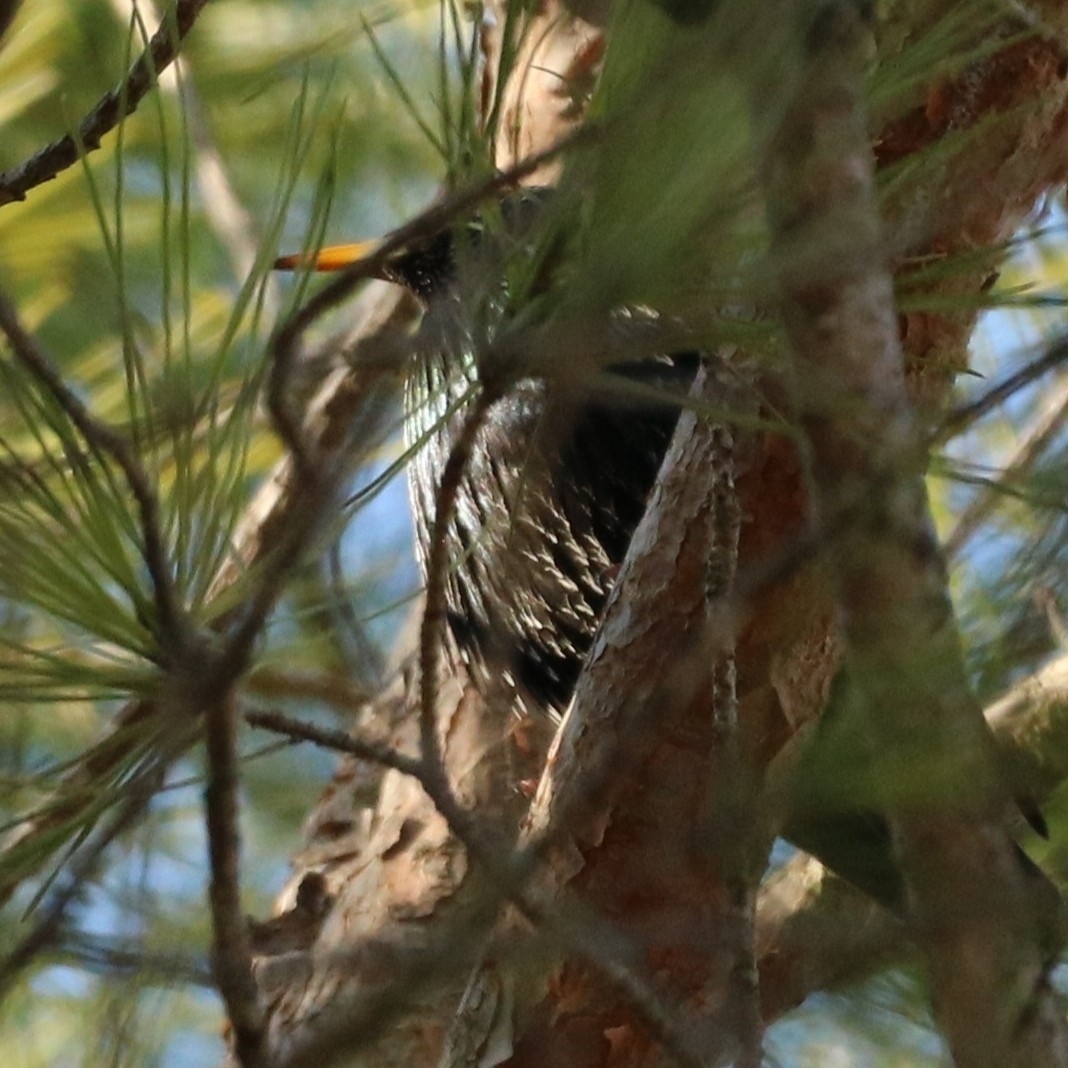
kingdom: Animalia
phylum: Chordata
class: Aves
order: Passeriformes
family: Sturnidae
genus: Sturnus
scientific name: Sturnus vulgaris
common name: Common starling
